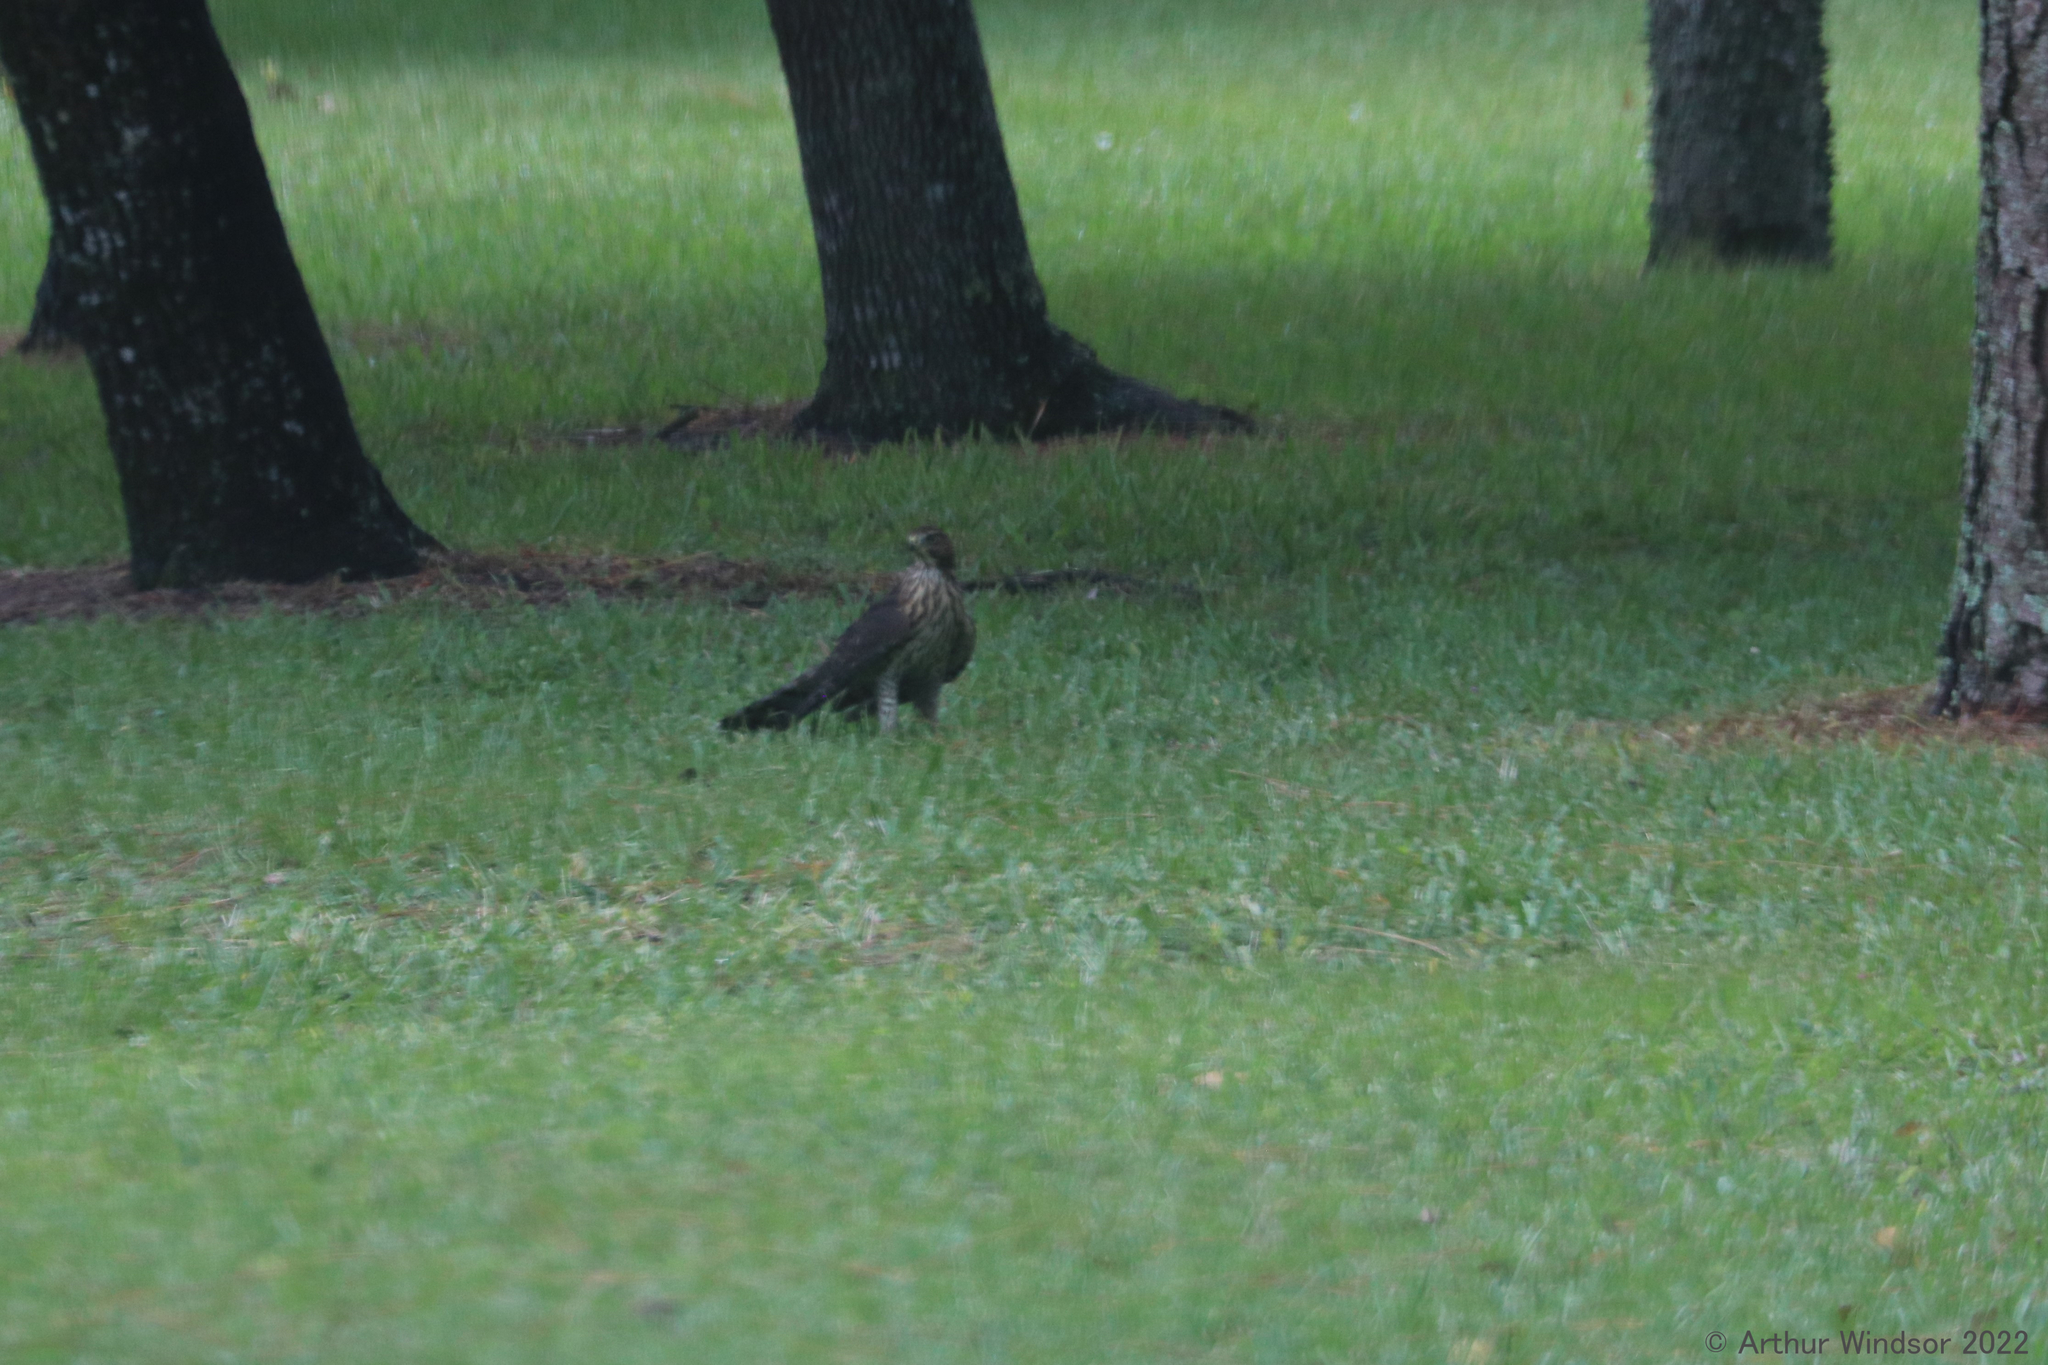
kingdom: Animalia
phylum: Chordata
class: Aves
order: Accipitriformes
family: Accipitridae
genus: Accipiter
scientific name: Accipiter cooperii
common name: Cooper's hawk
